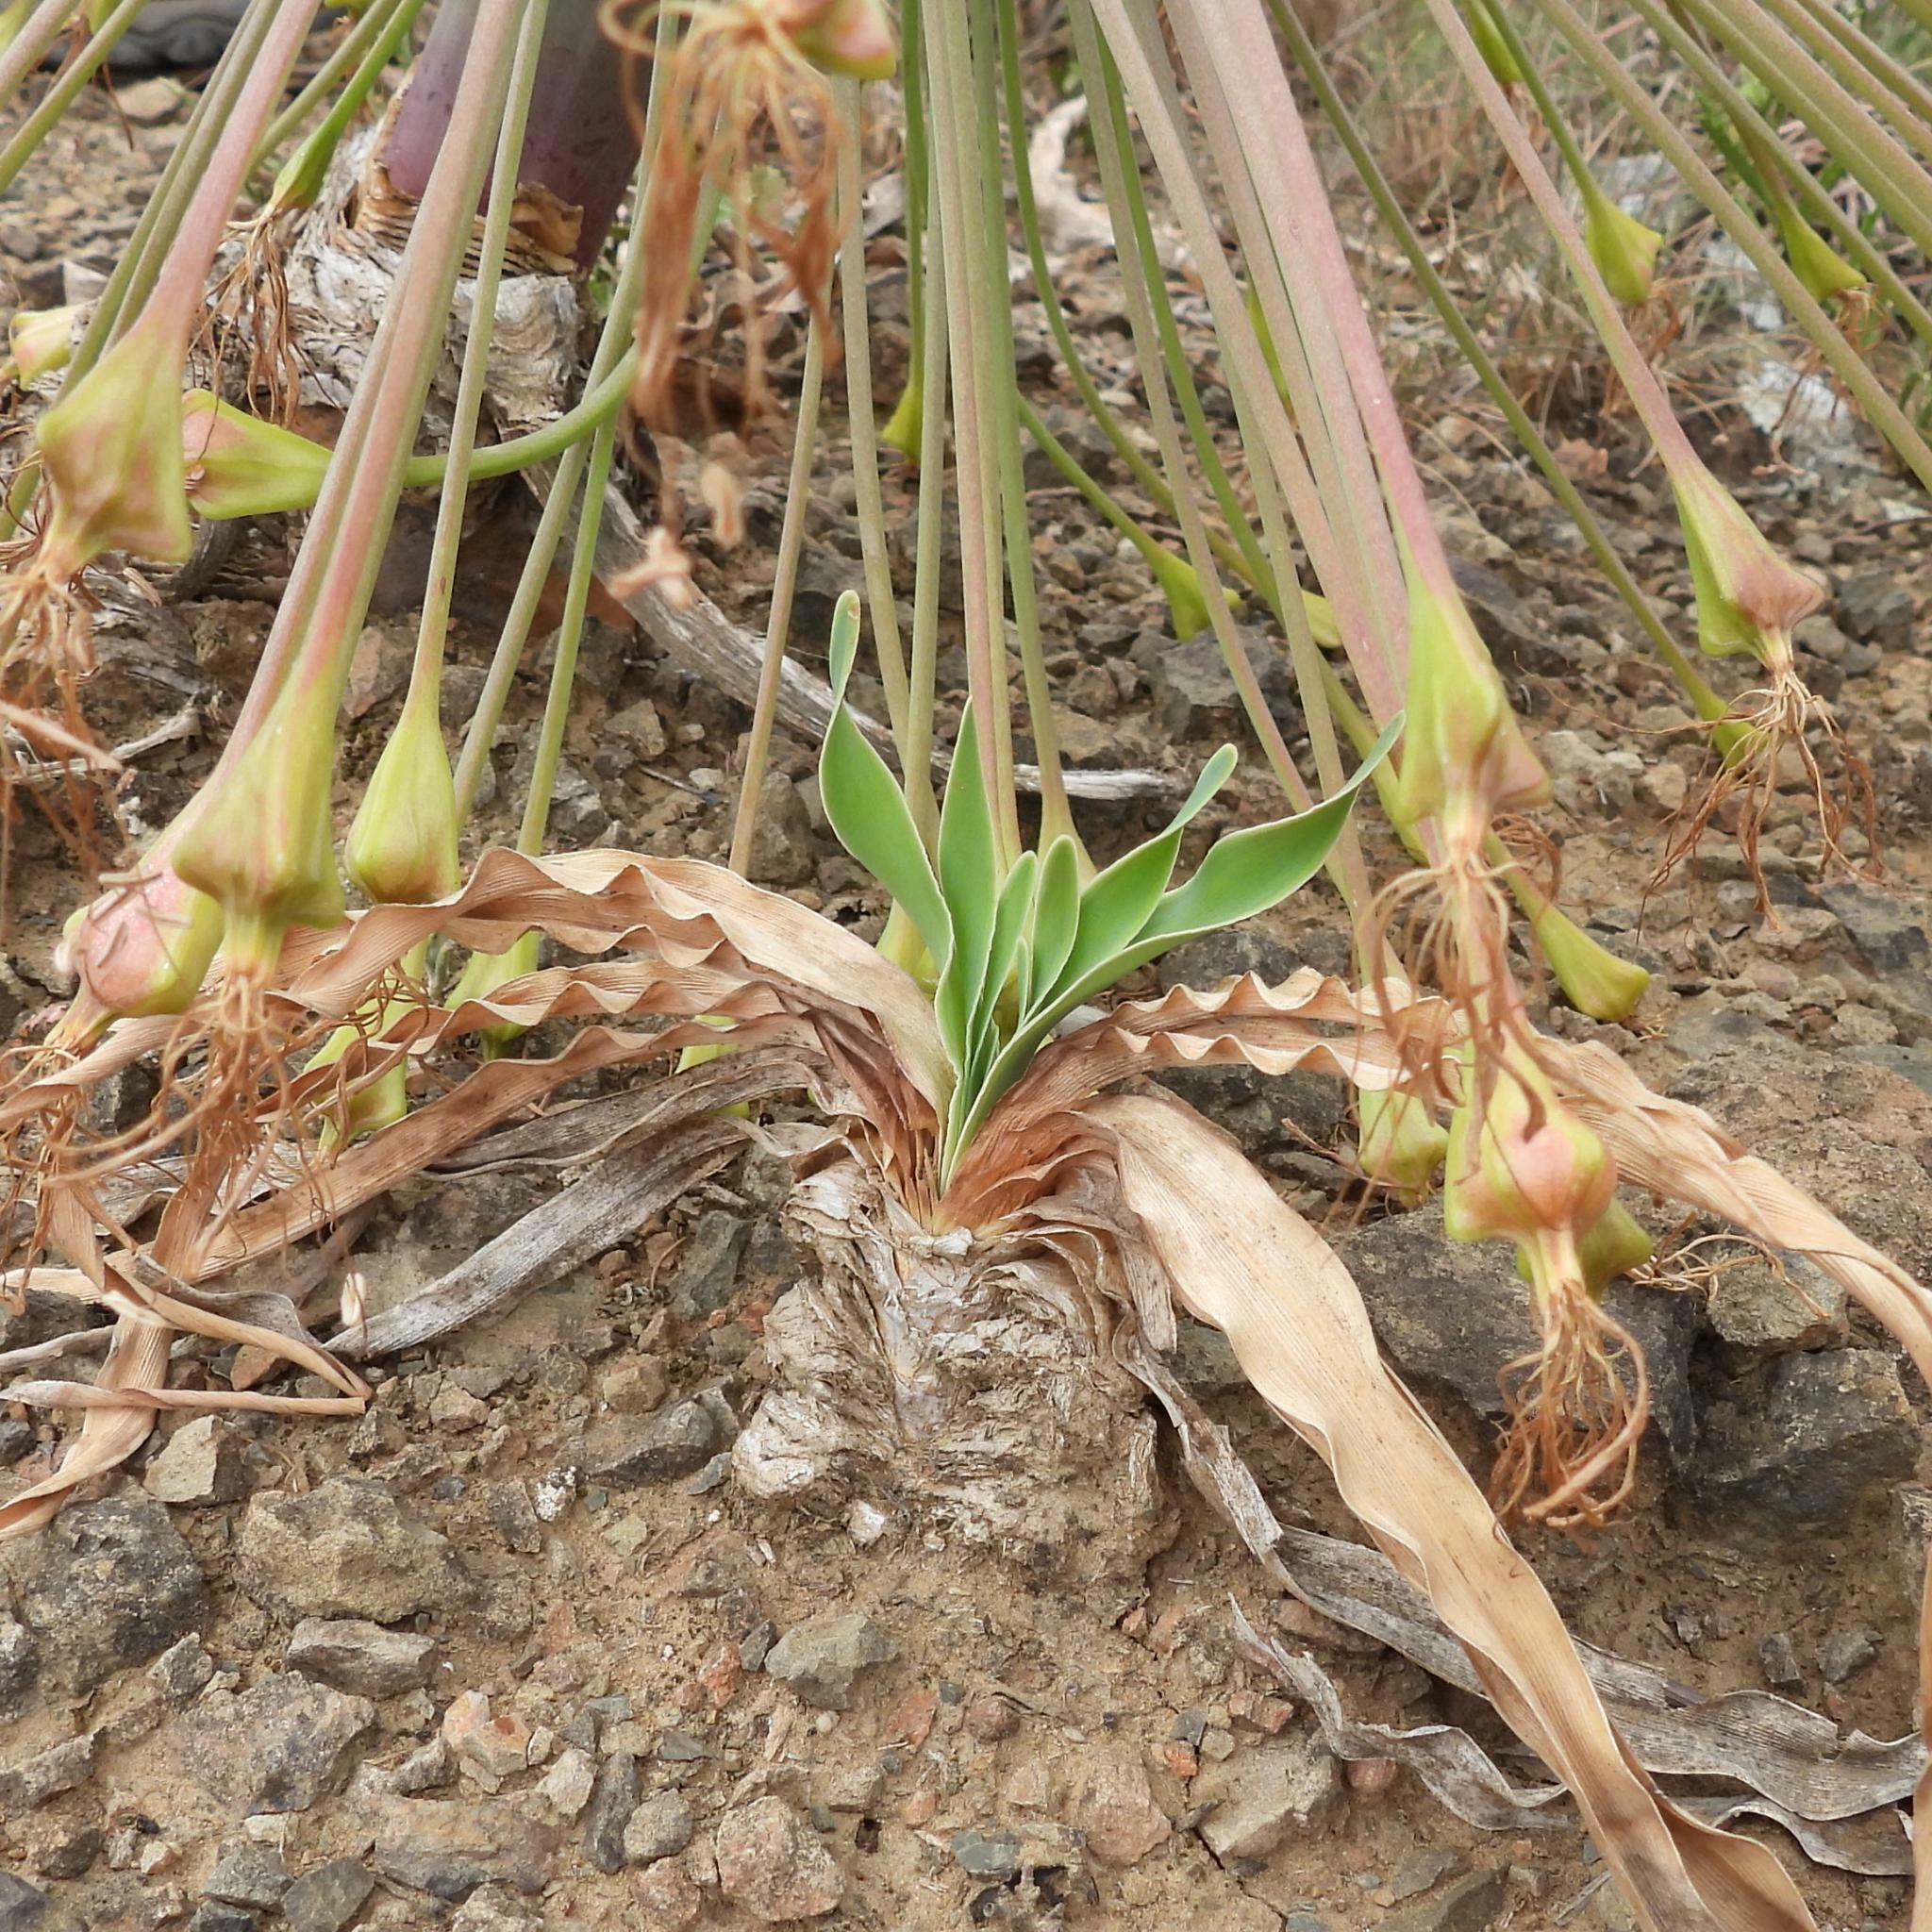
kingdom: Plantae
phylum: Tracheophyta
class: Liliopsida
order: Asparagales
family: Amaryllidaceae
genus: Boophone
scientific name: Boophone disticha
